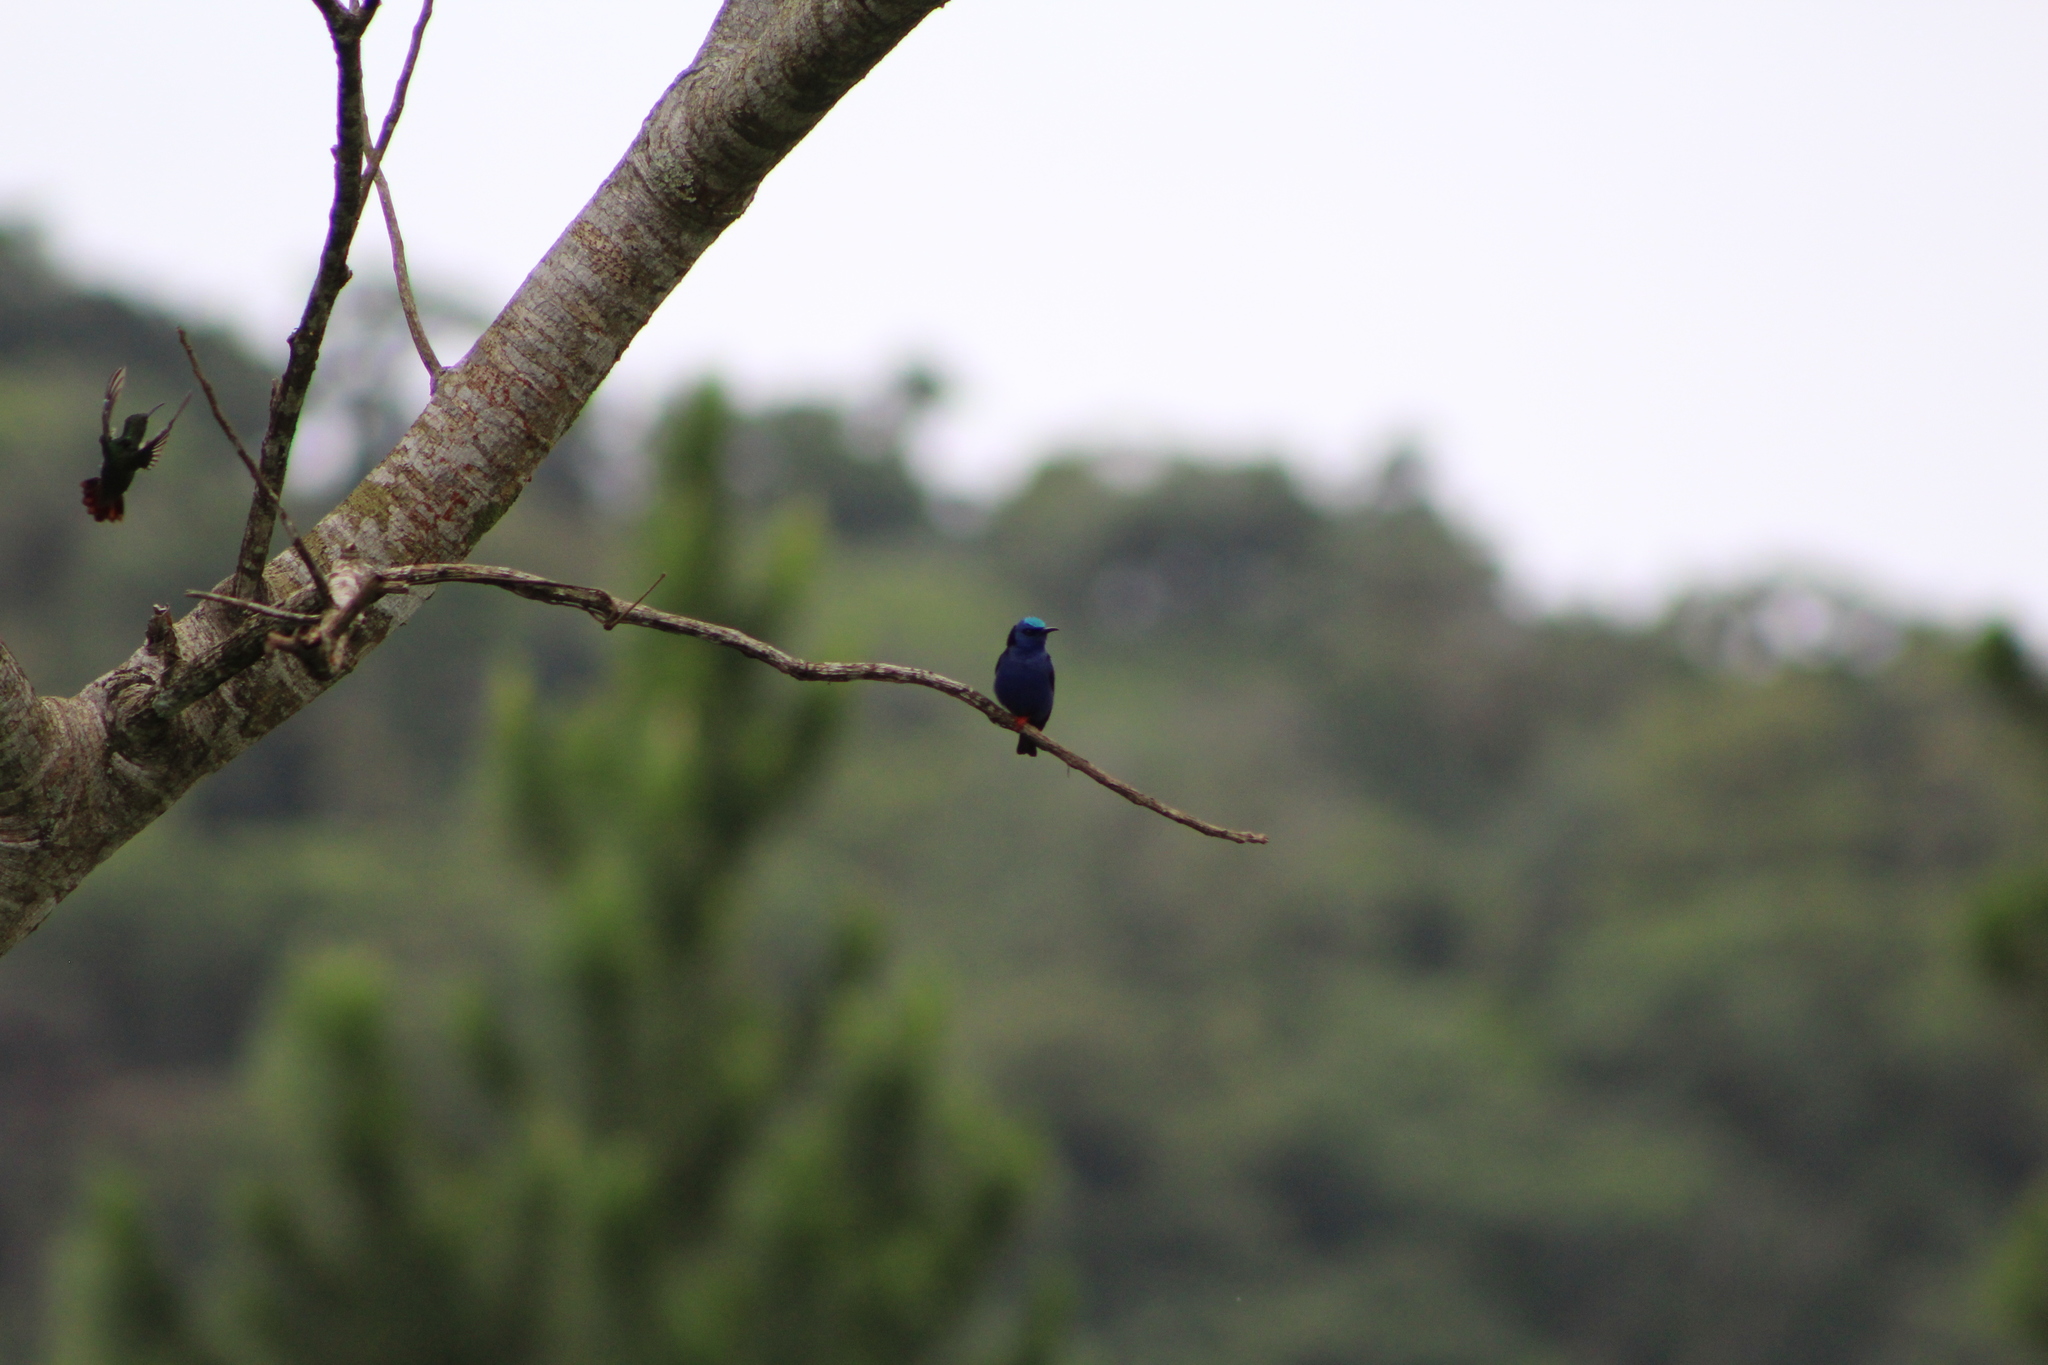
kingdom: Animalia
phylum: Chordata
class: Aves
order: Passeriformes
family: Thraupidae
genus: Cyanerpes
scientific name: Cyanerpes cyaneus
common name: Red-legged honeycreeper
